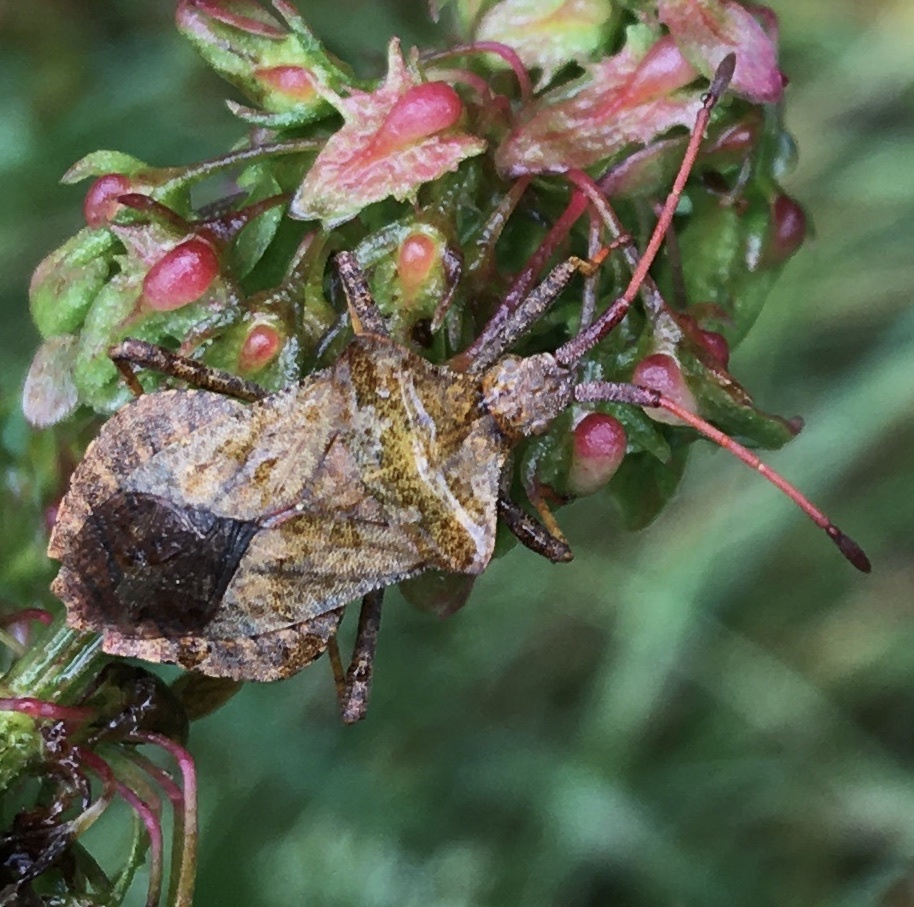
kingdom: Animalia
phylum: Arthropoda
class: Insecta
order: Hemiptera
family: Coreidae
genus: Coreus
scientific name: Coreus marginatus
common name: Dock bug
